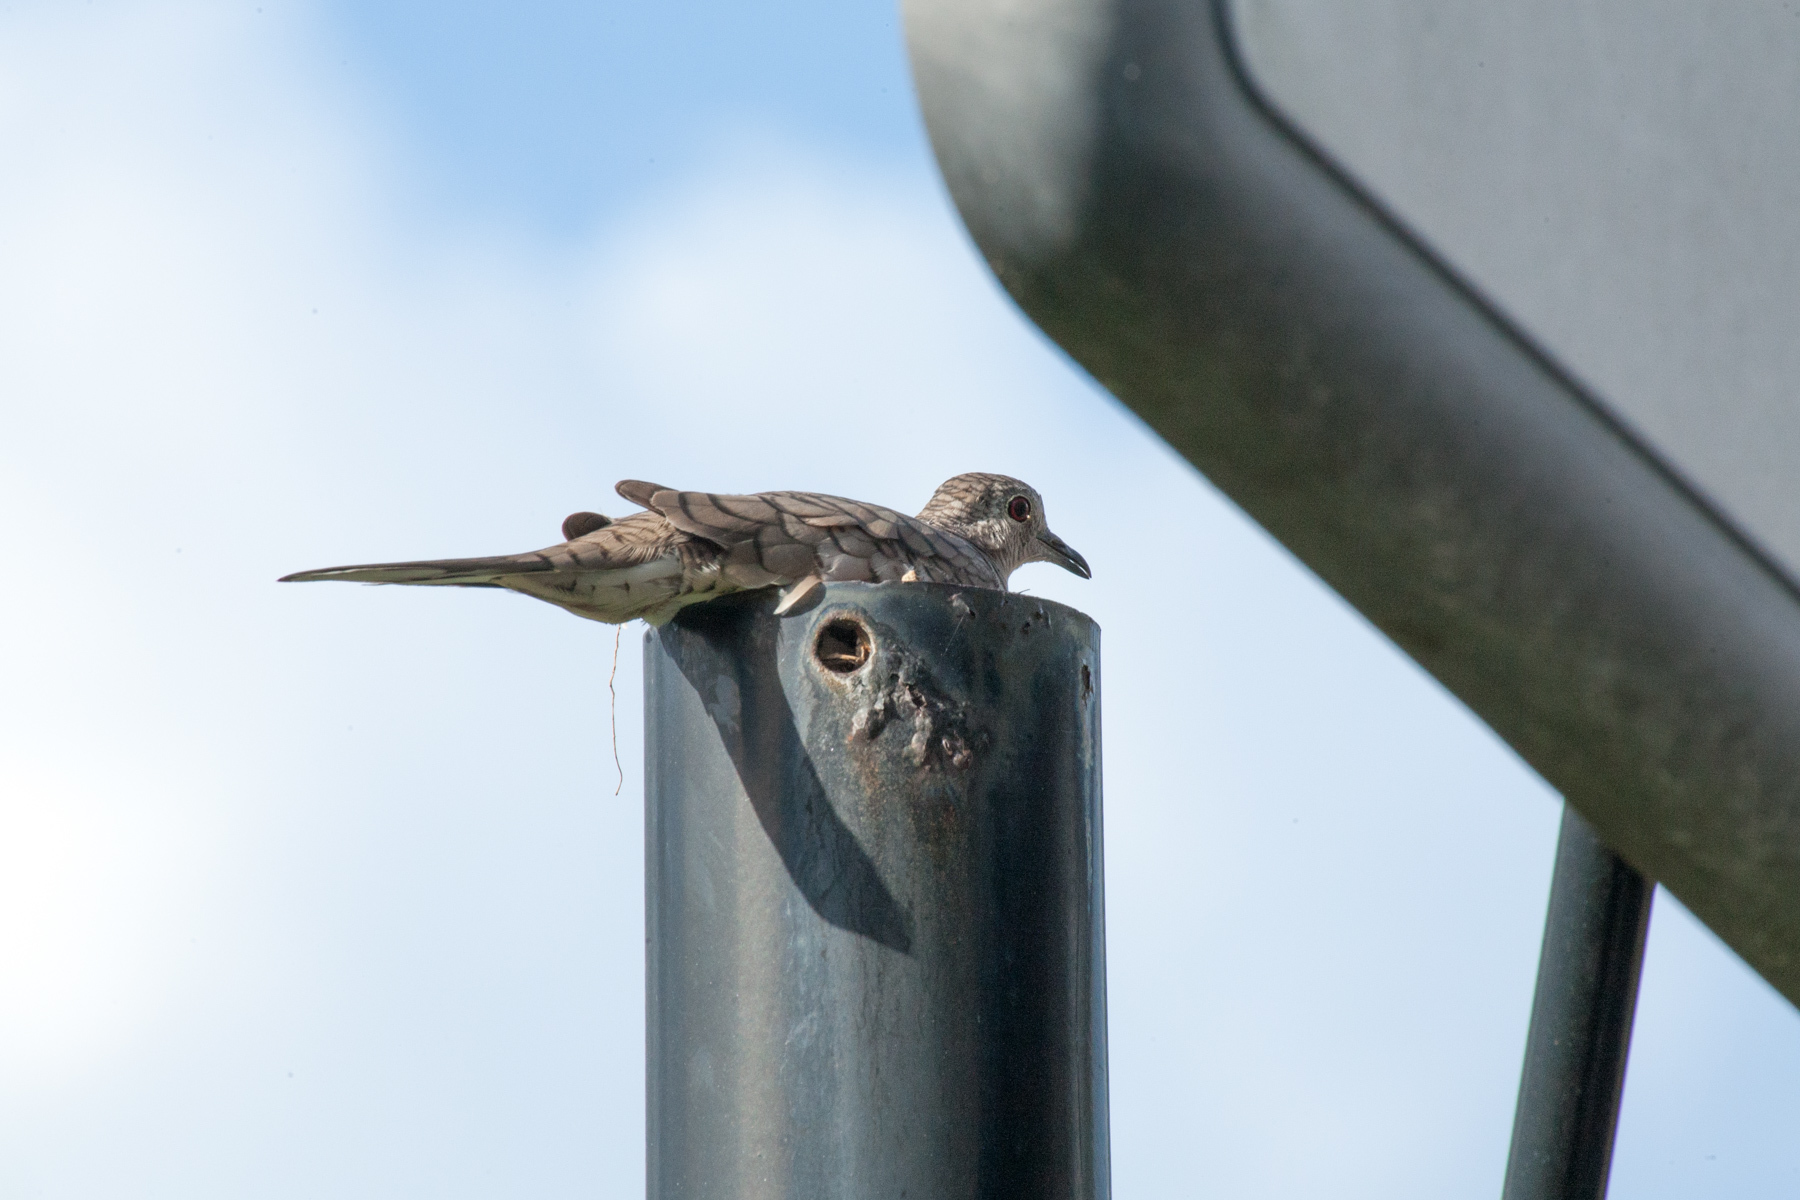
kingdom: Animalia
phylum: Chordata
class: Aves
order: Columbiformes
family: Columbidae
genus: Columbina
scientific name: Columbina inca
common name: Inca dove
